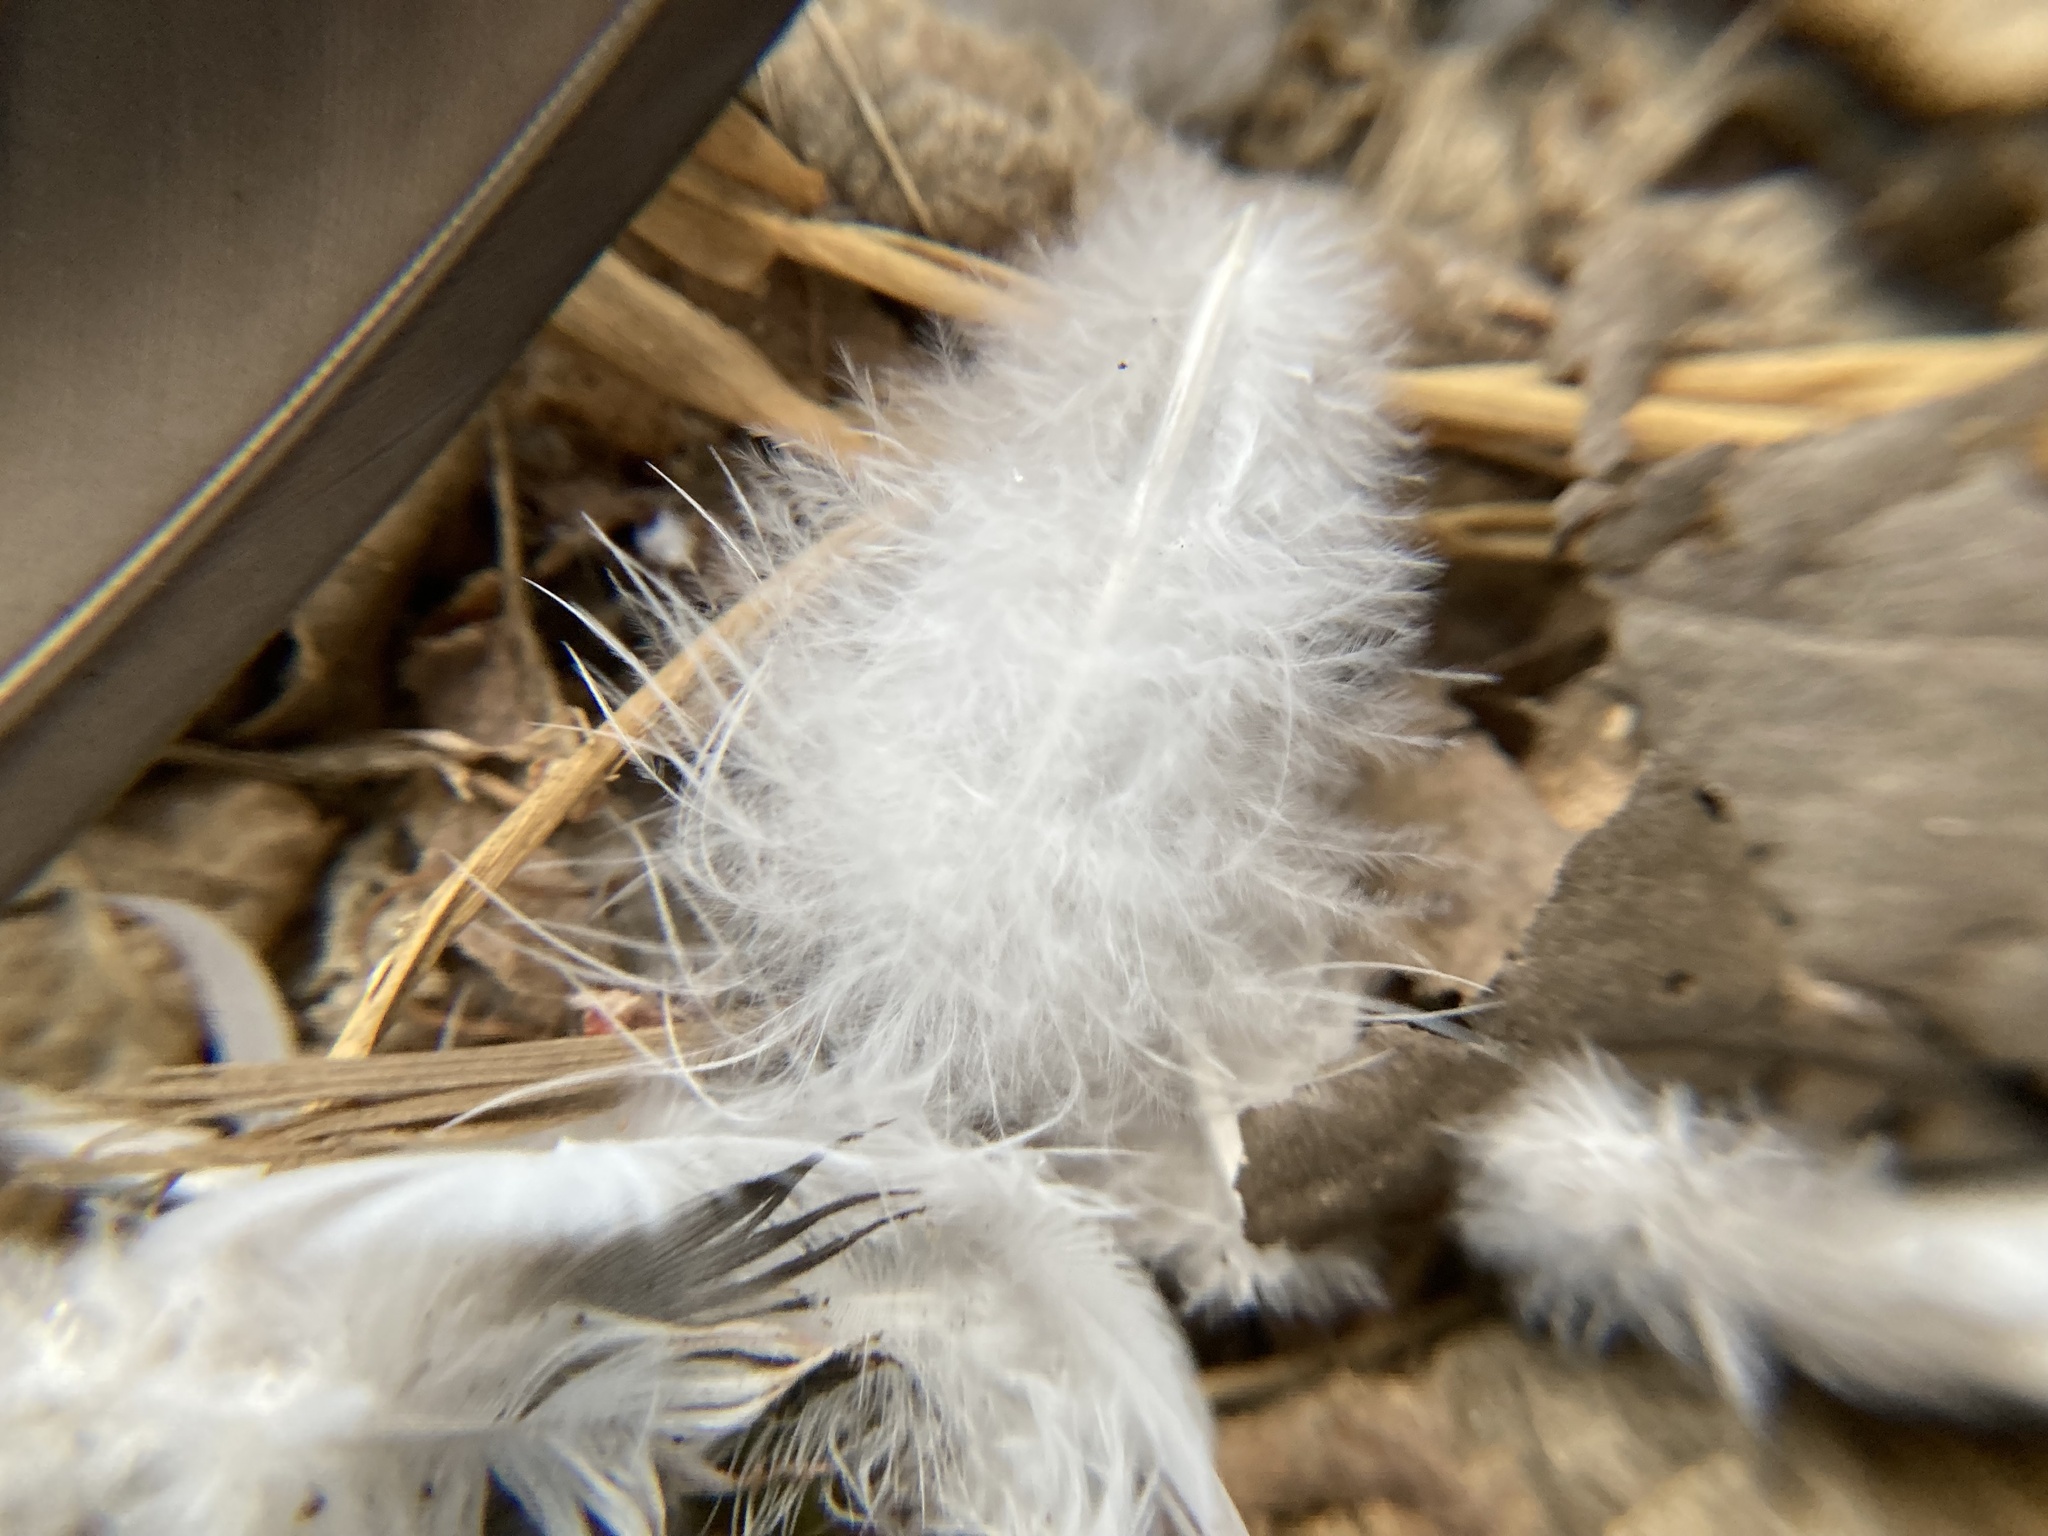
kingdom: Animalia
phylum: Chordata
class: Aves
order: Columbiformes
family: Columbidae
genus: Columba
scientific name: Columba livia
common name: Rock pigeon
